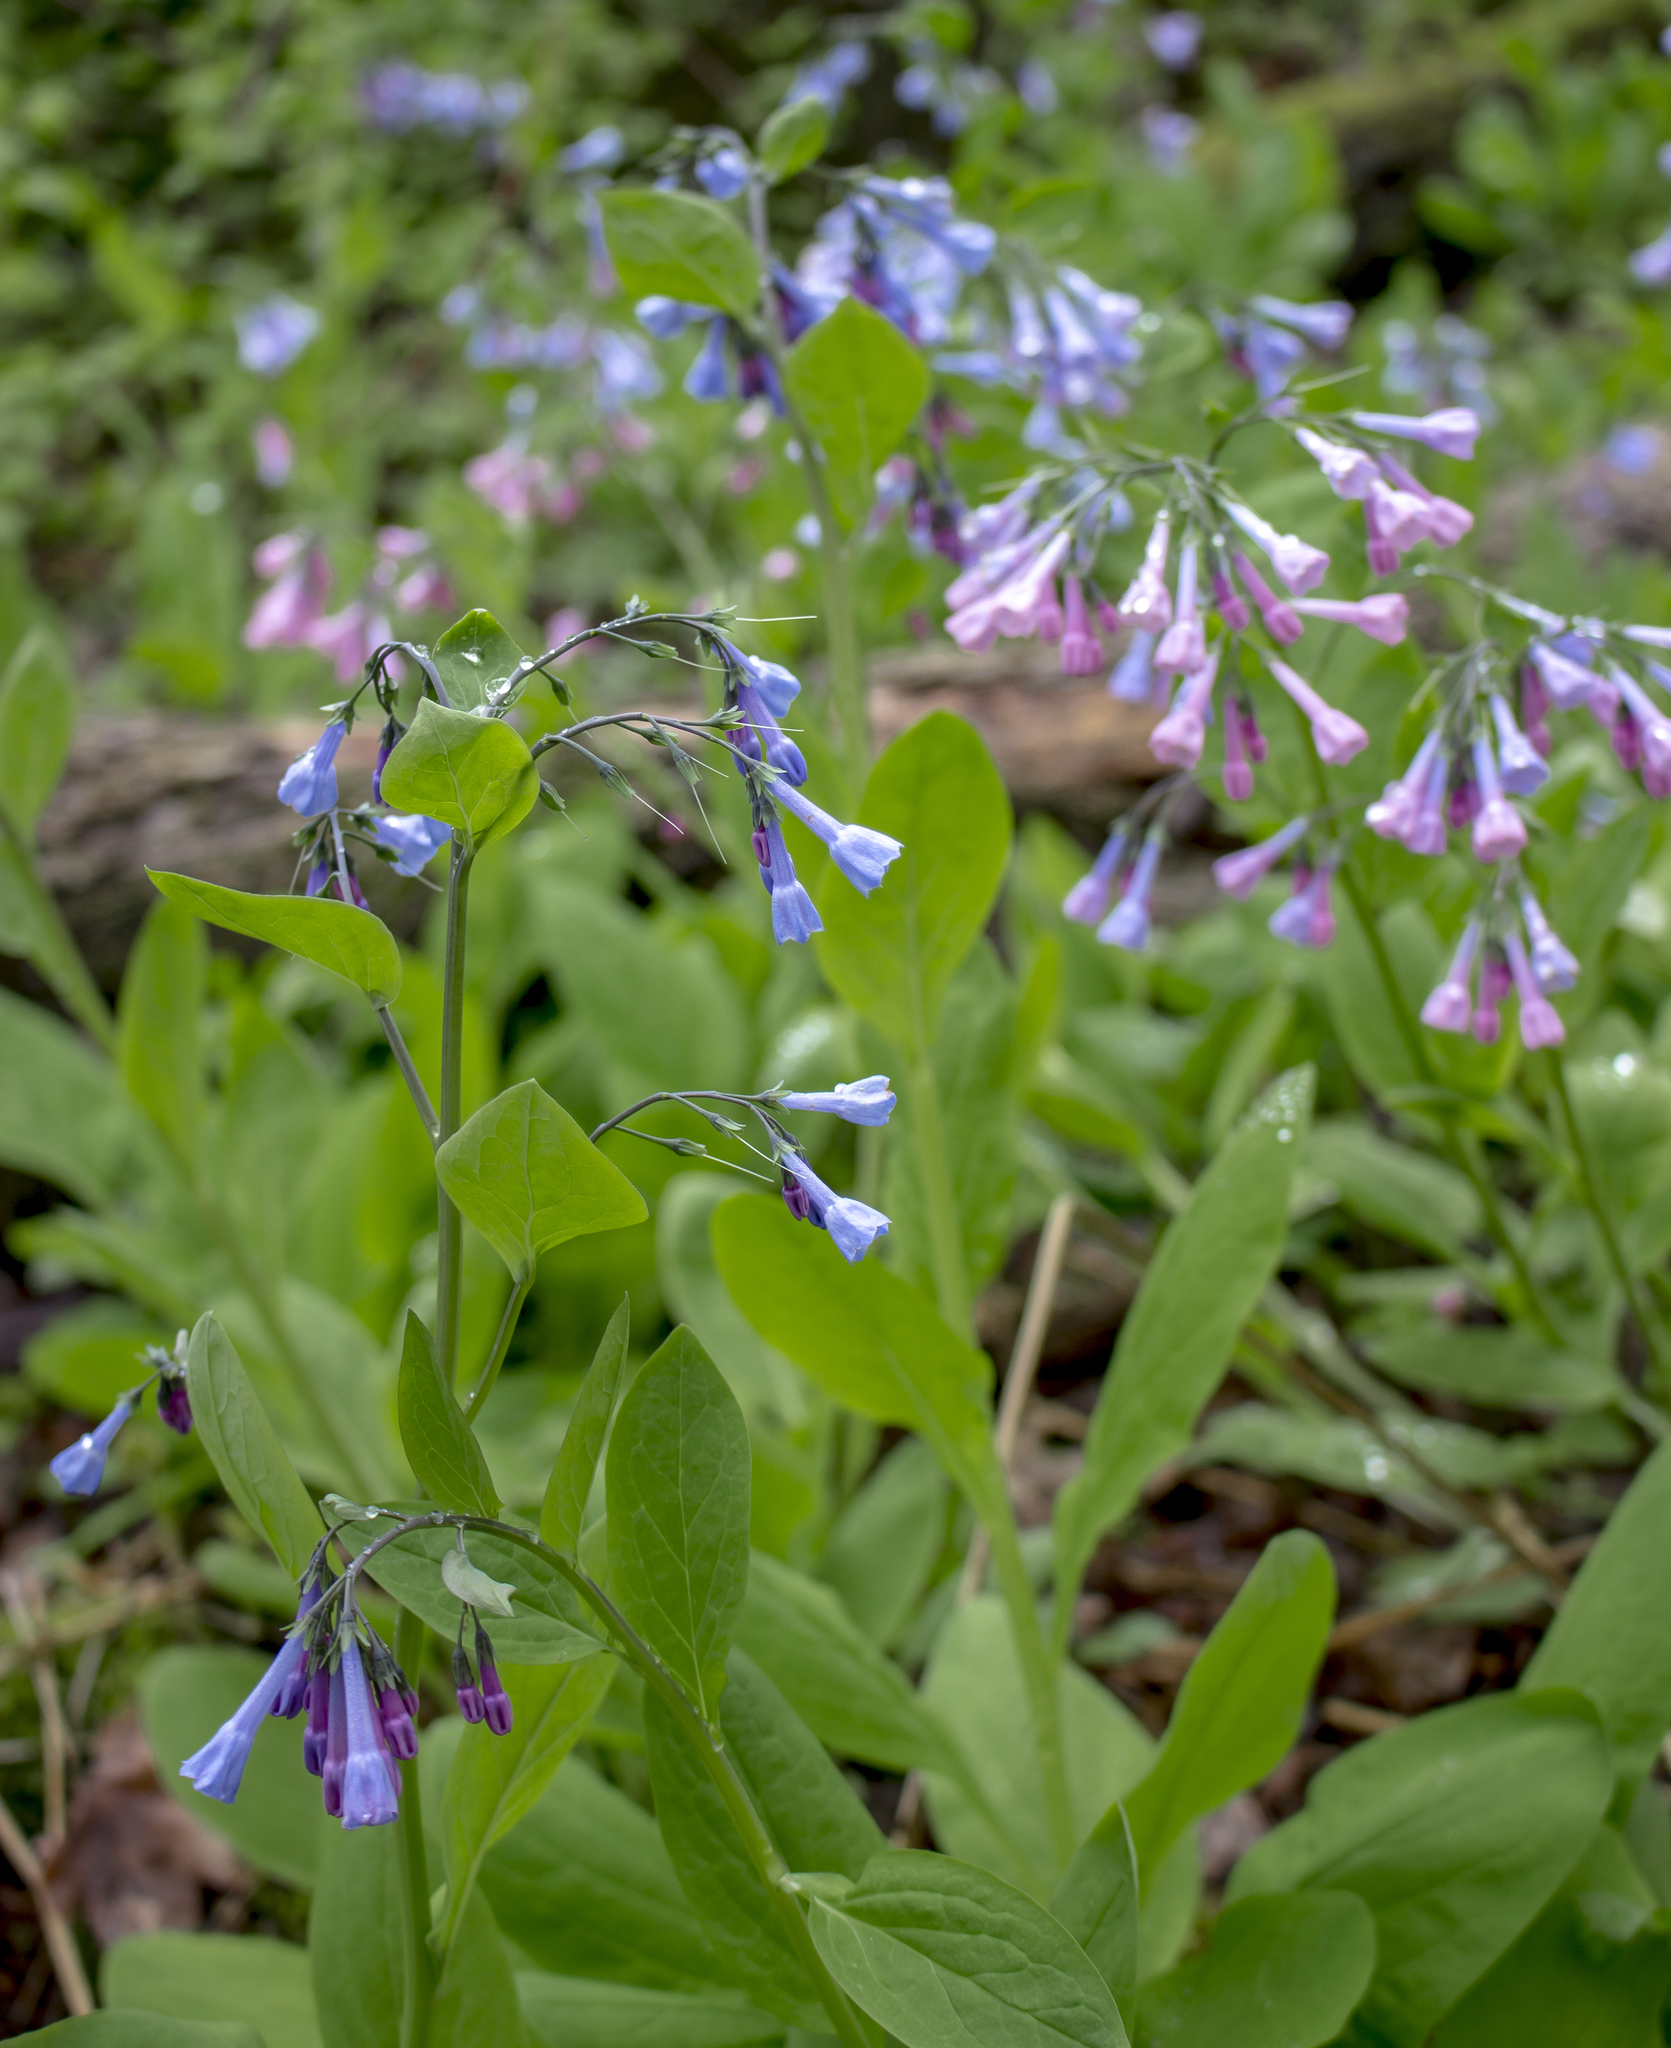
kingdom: Plantae
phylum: Tracheophyta
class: Magnoliopsida
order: Boraginales
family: Boraginaceae
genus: Mertensia
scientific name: Mertensia virginica
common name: Virginia bluebells
